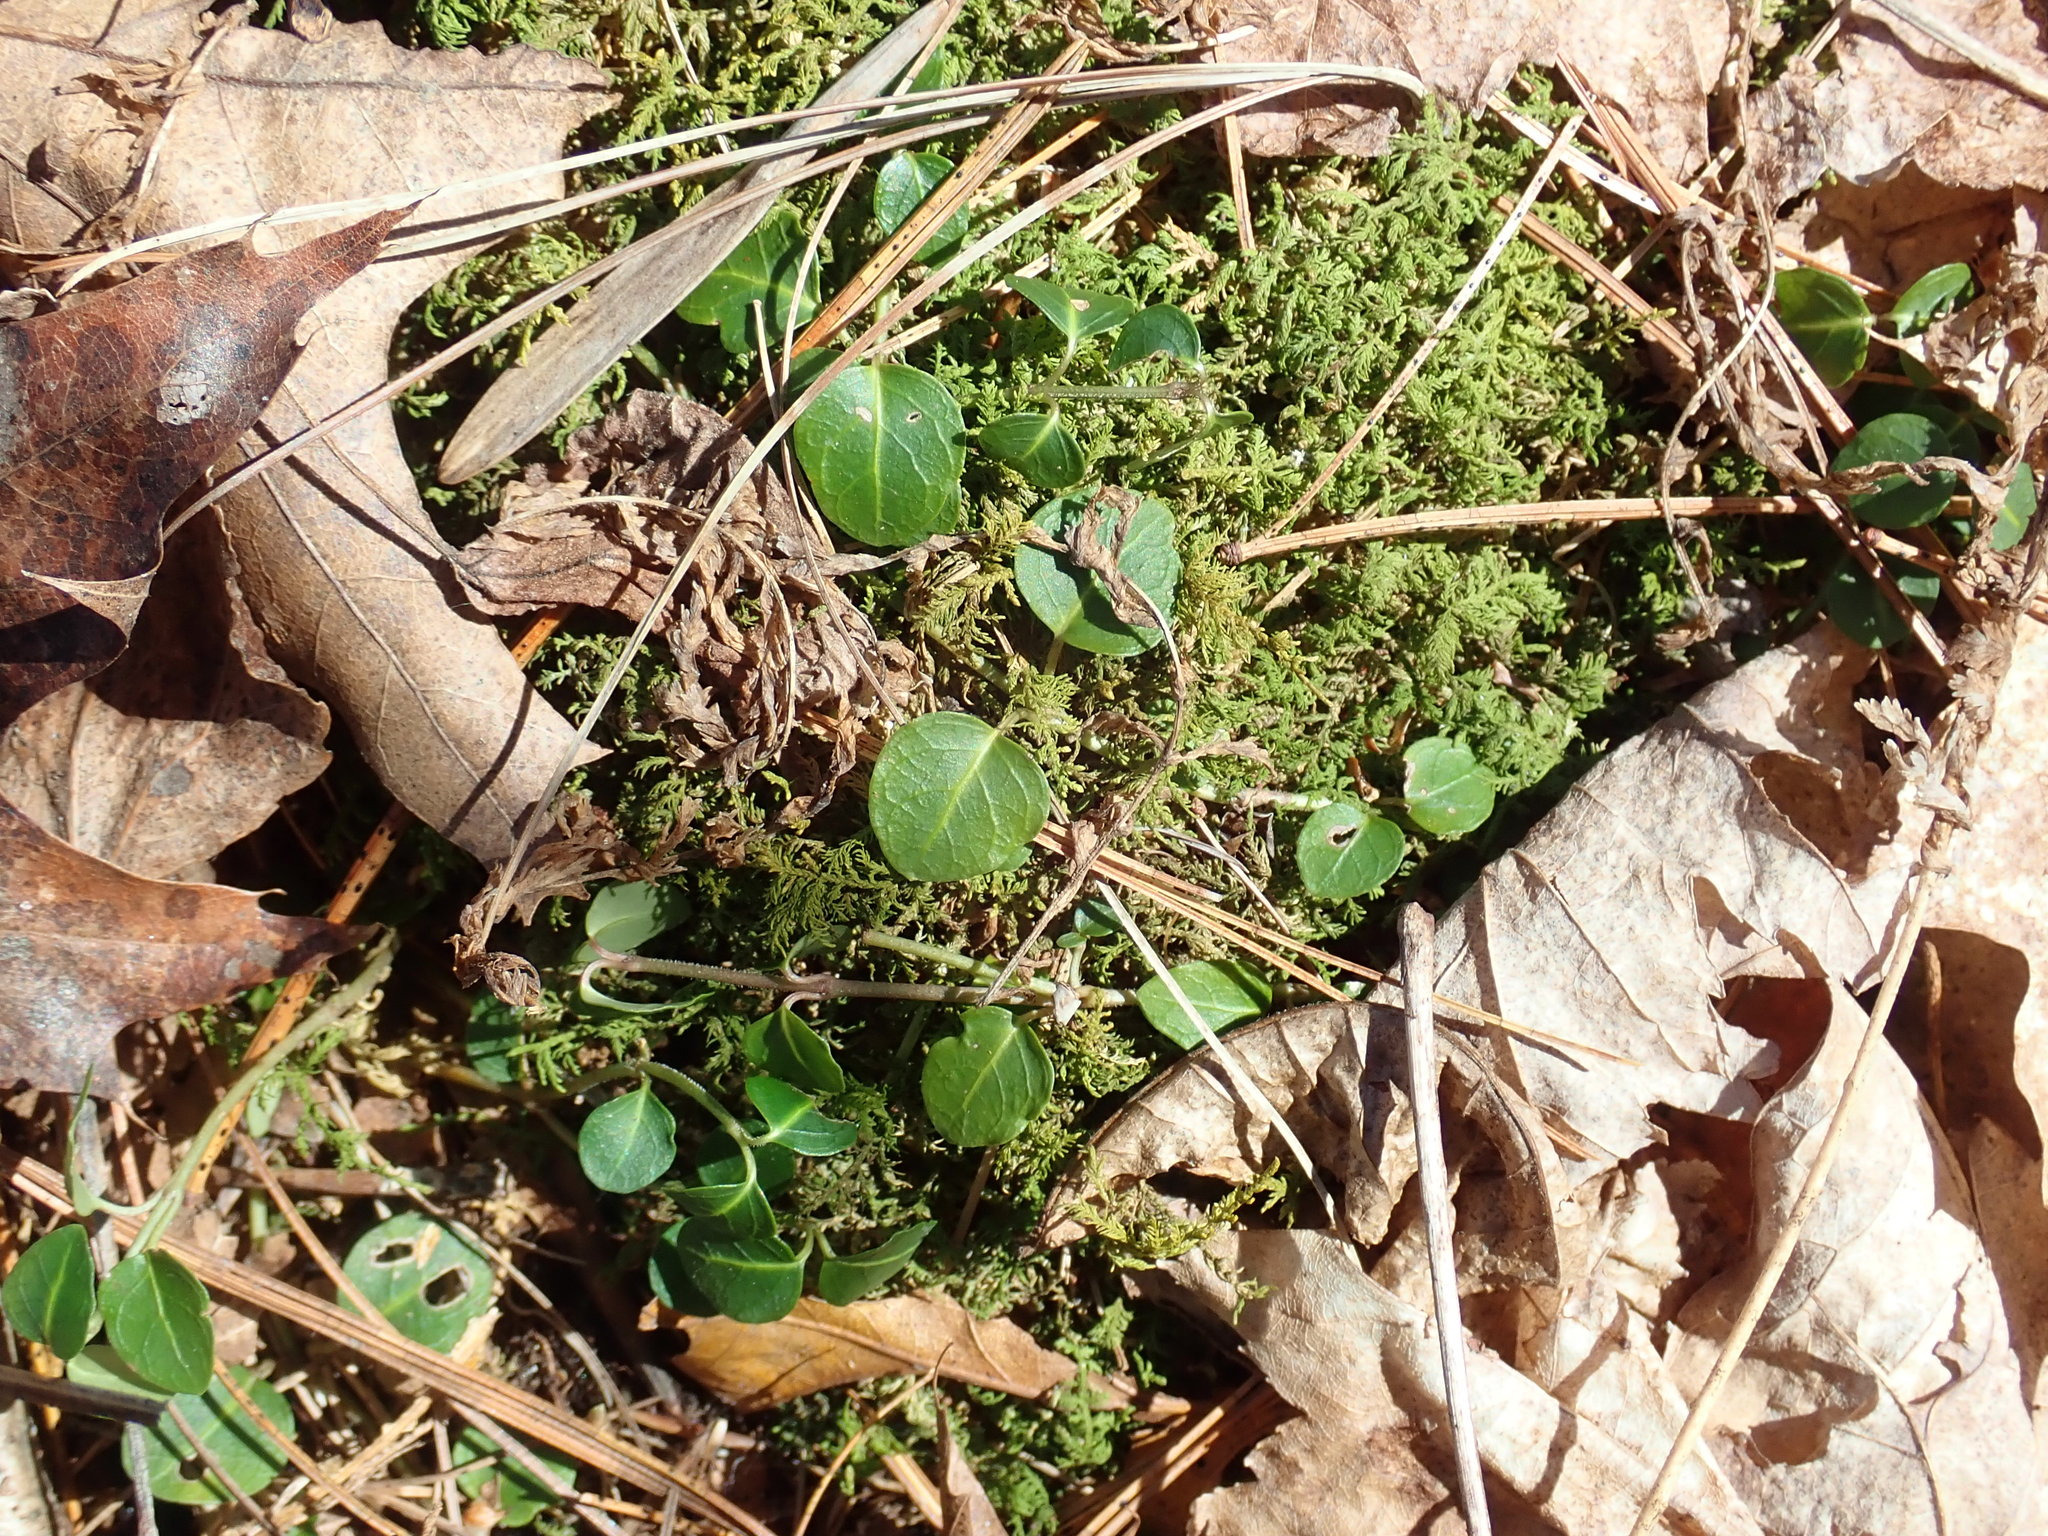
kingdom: Plantae
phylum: Tracheophyta
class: Magnoliopsida
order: Gentianales
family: Rubiaceae
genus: Mitchella
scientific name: Mitchella repens
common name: Partridge-berry
